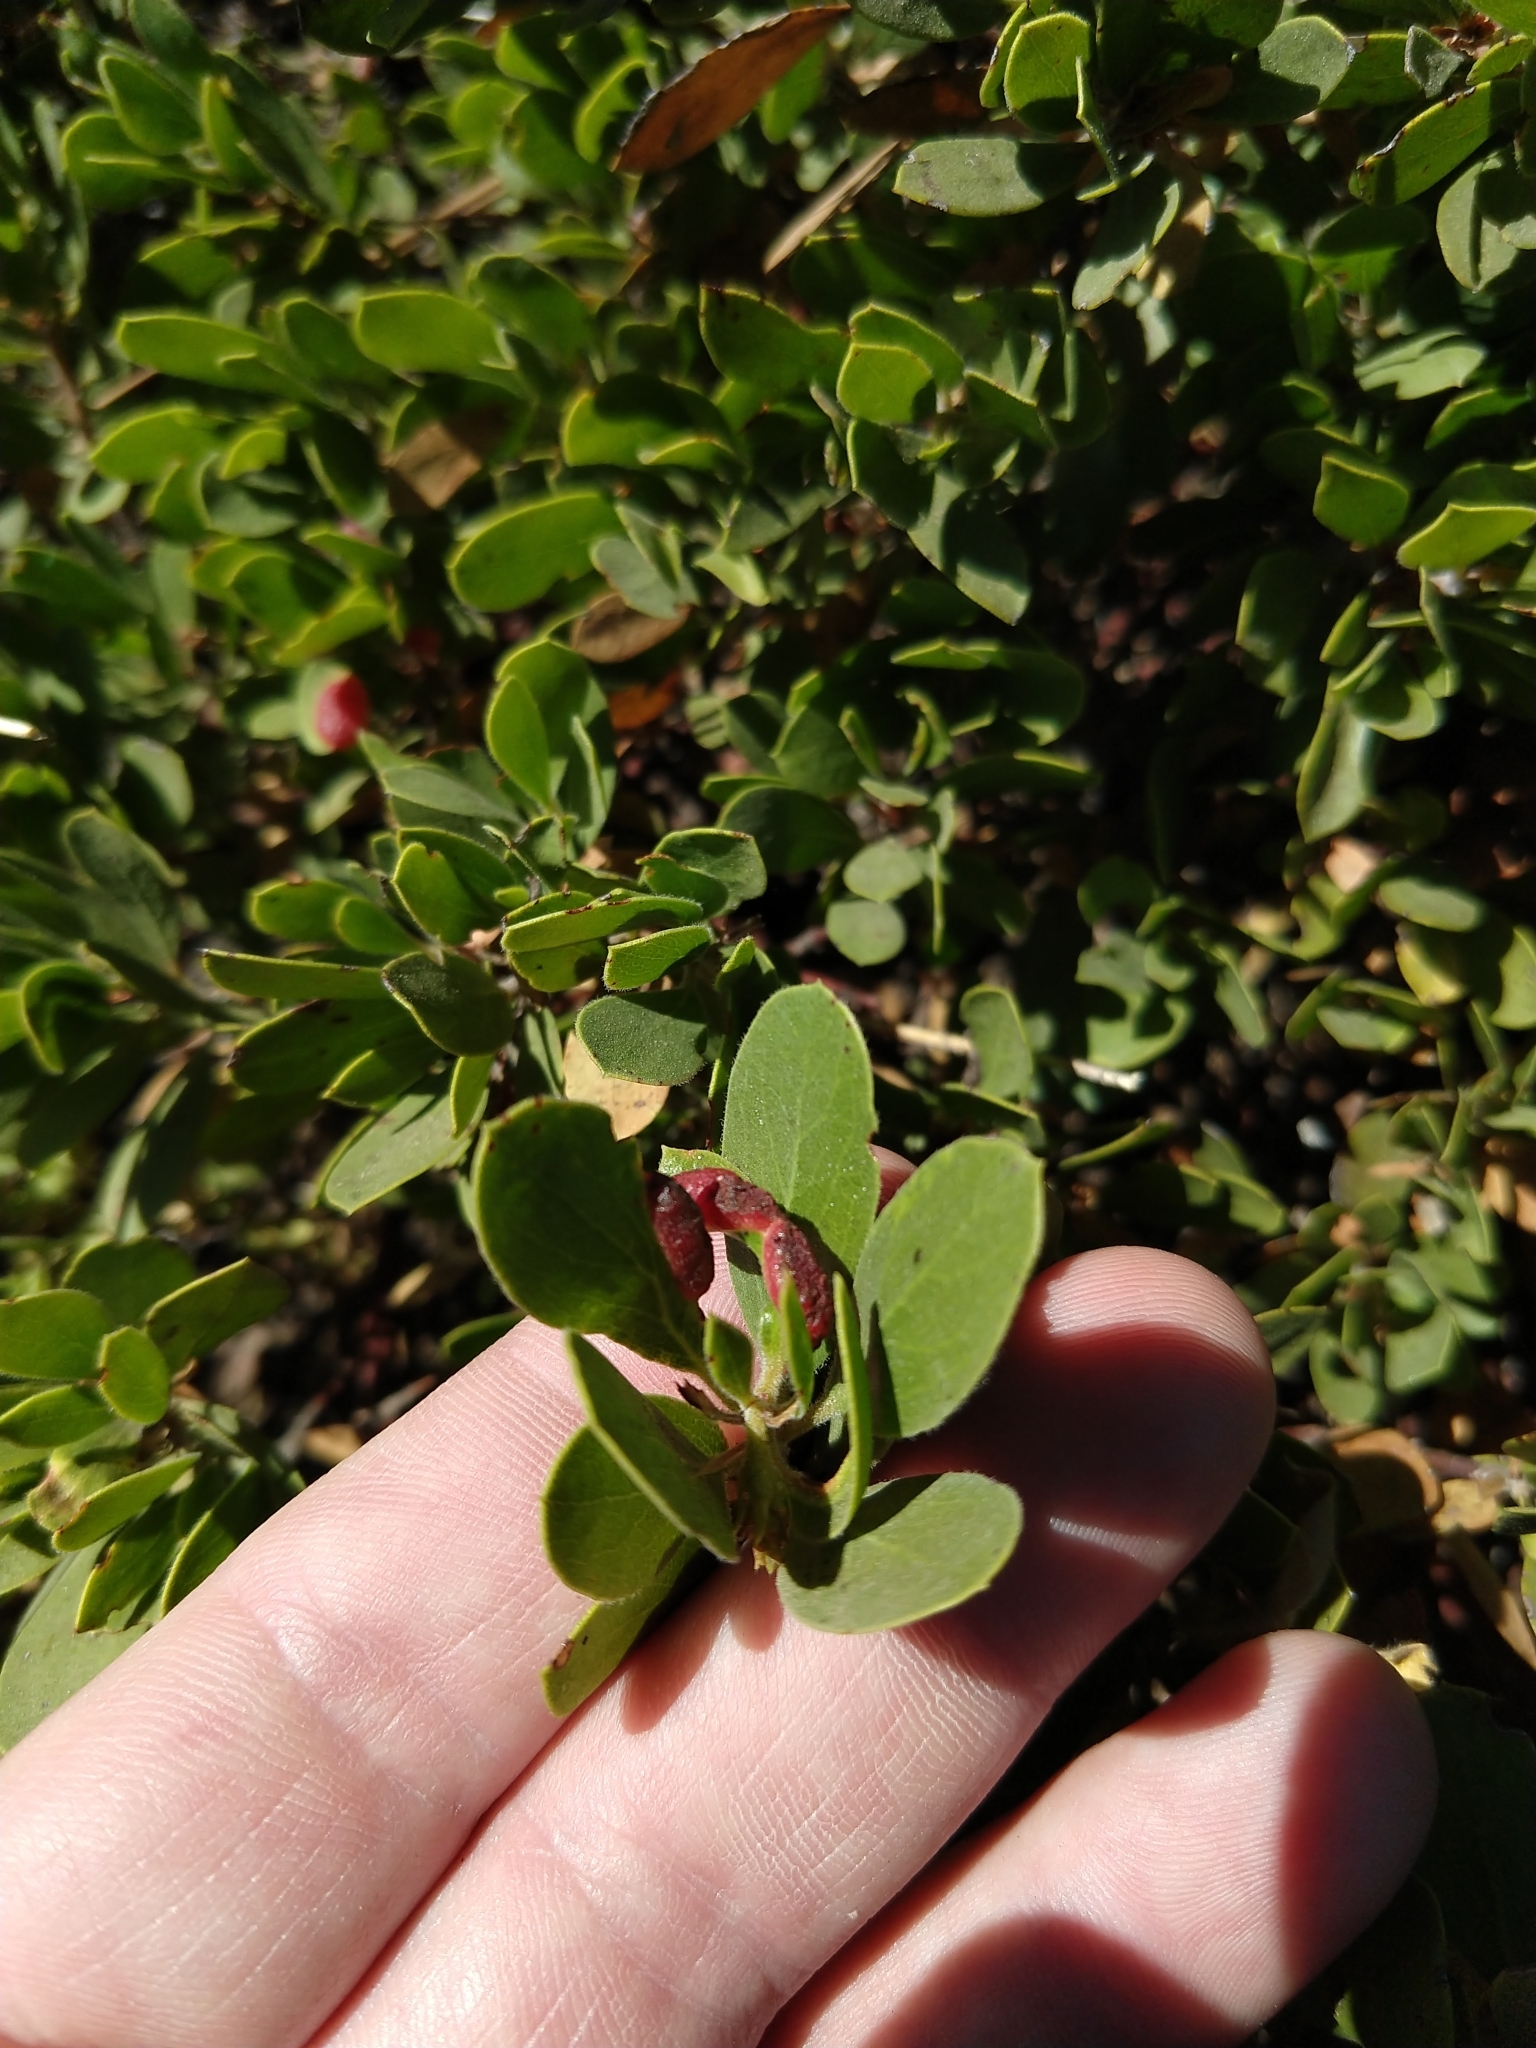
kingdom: Animalia
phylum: Arthropoda
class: Insecta
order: Hemiptera
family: Aphididae
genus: Tamalia
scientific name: Tamalia coweni
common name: Manzanita leafgall aphid
